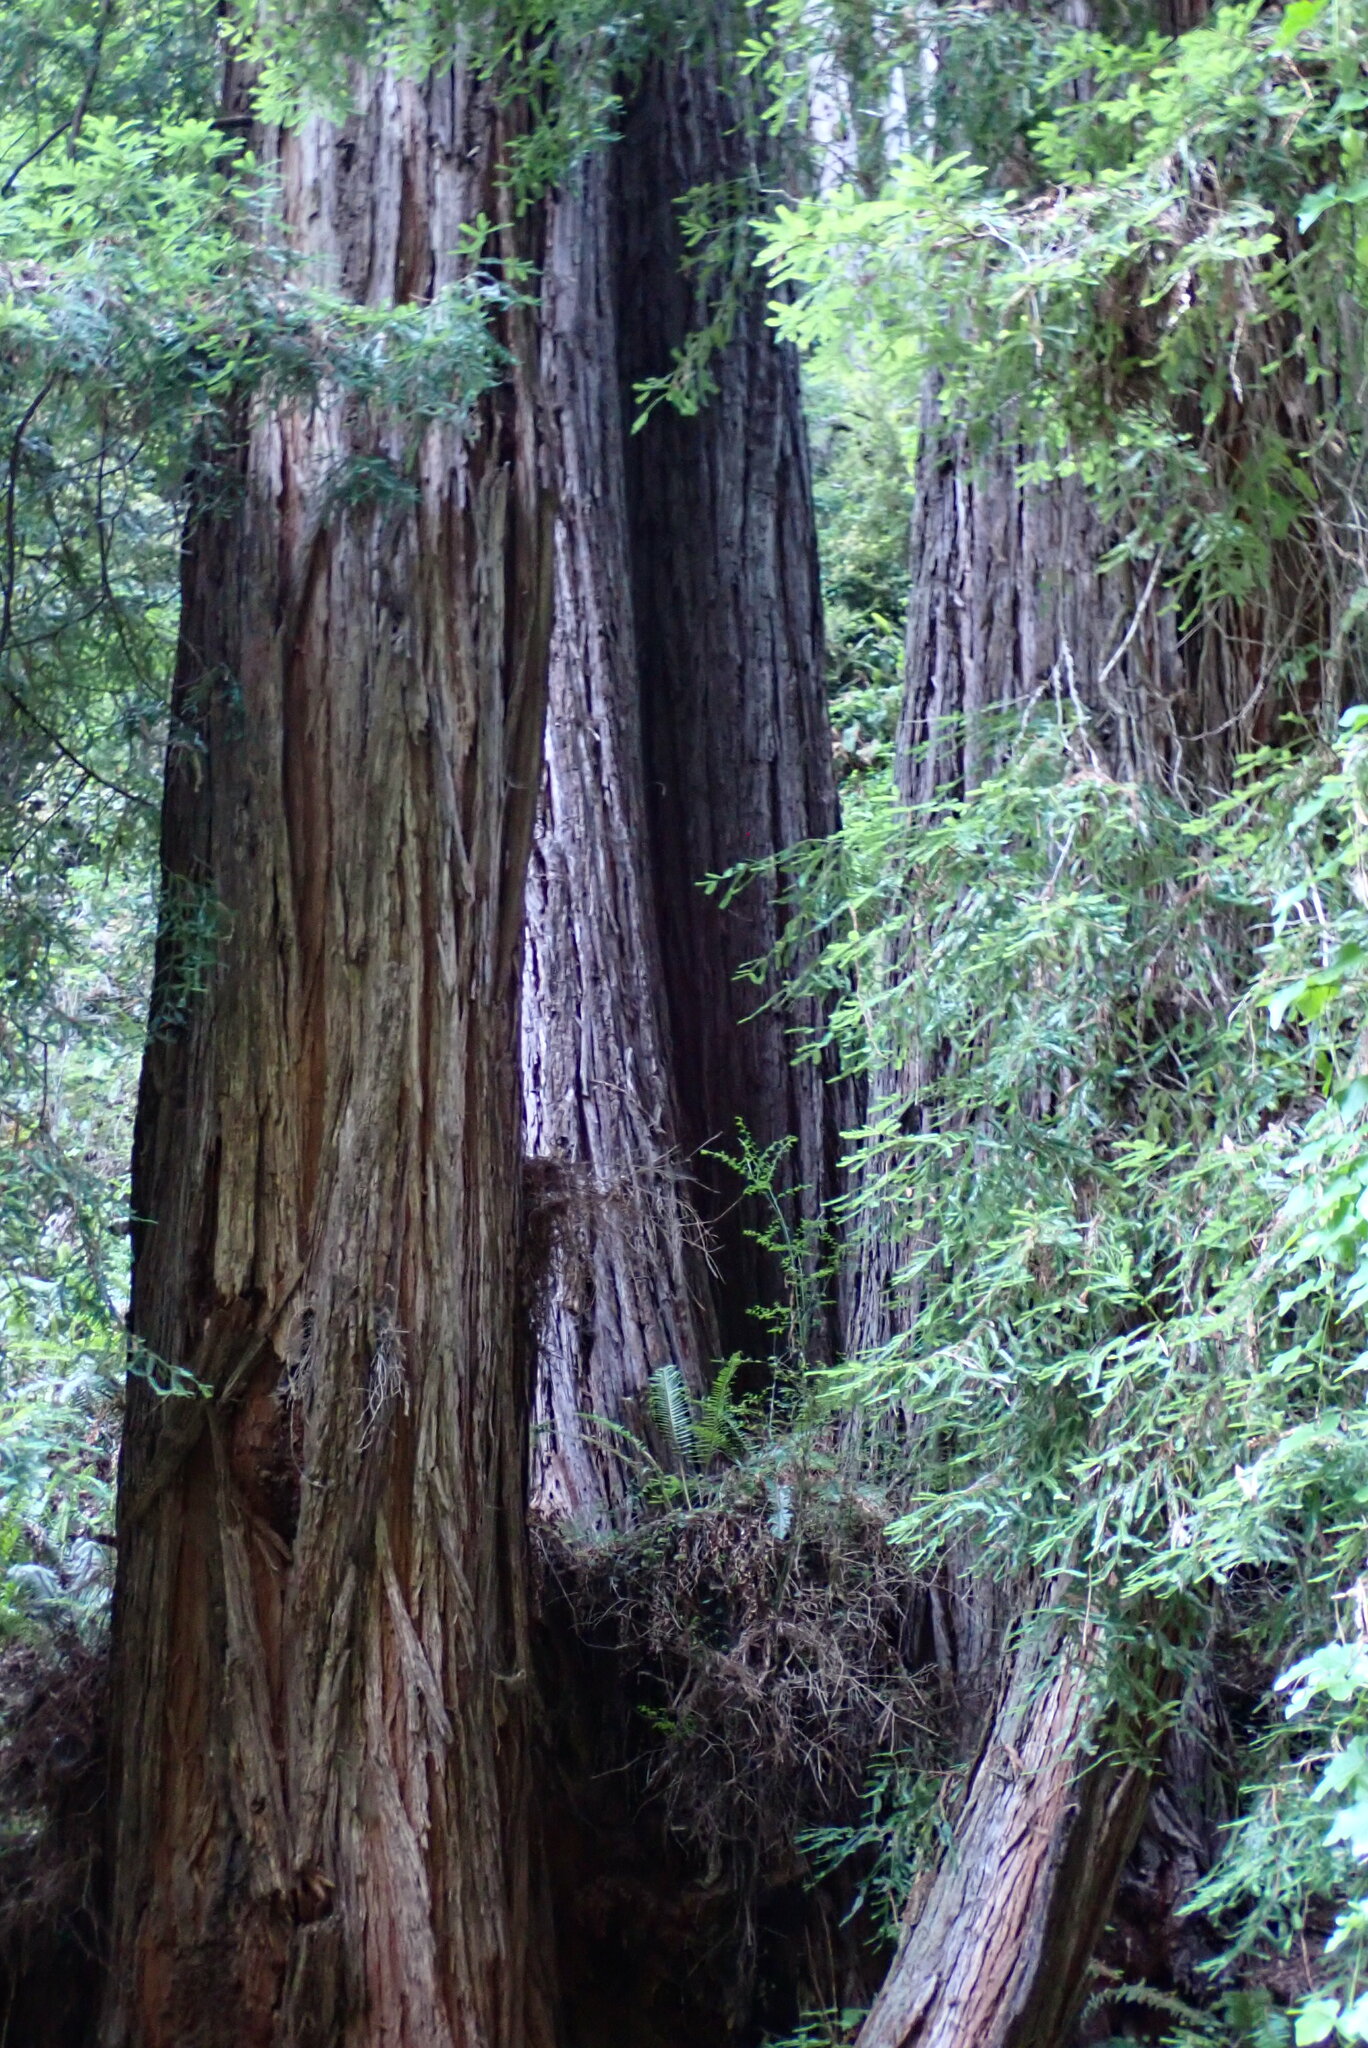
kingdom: Plantae
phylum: Tracheophyta
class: Pinopsida
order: Pinales
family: Cupressaceae
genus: Sequoia
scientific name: Sequoia sempervirens
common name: Coast redwood
